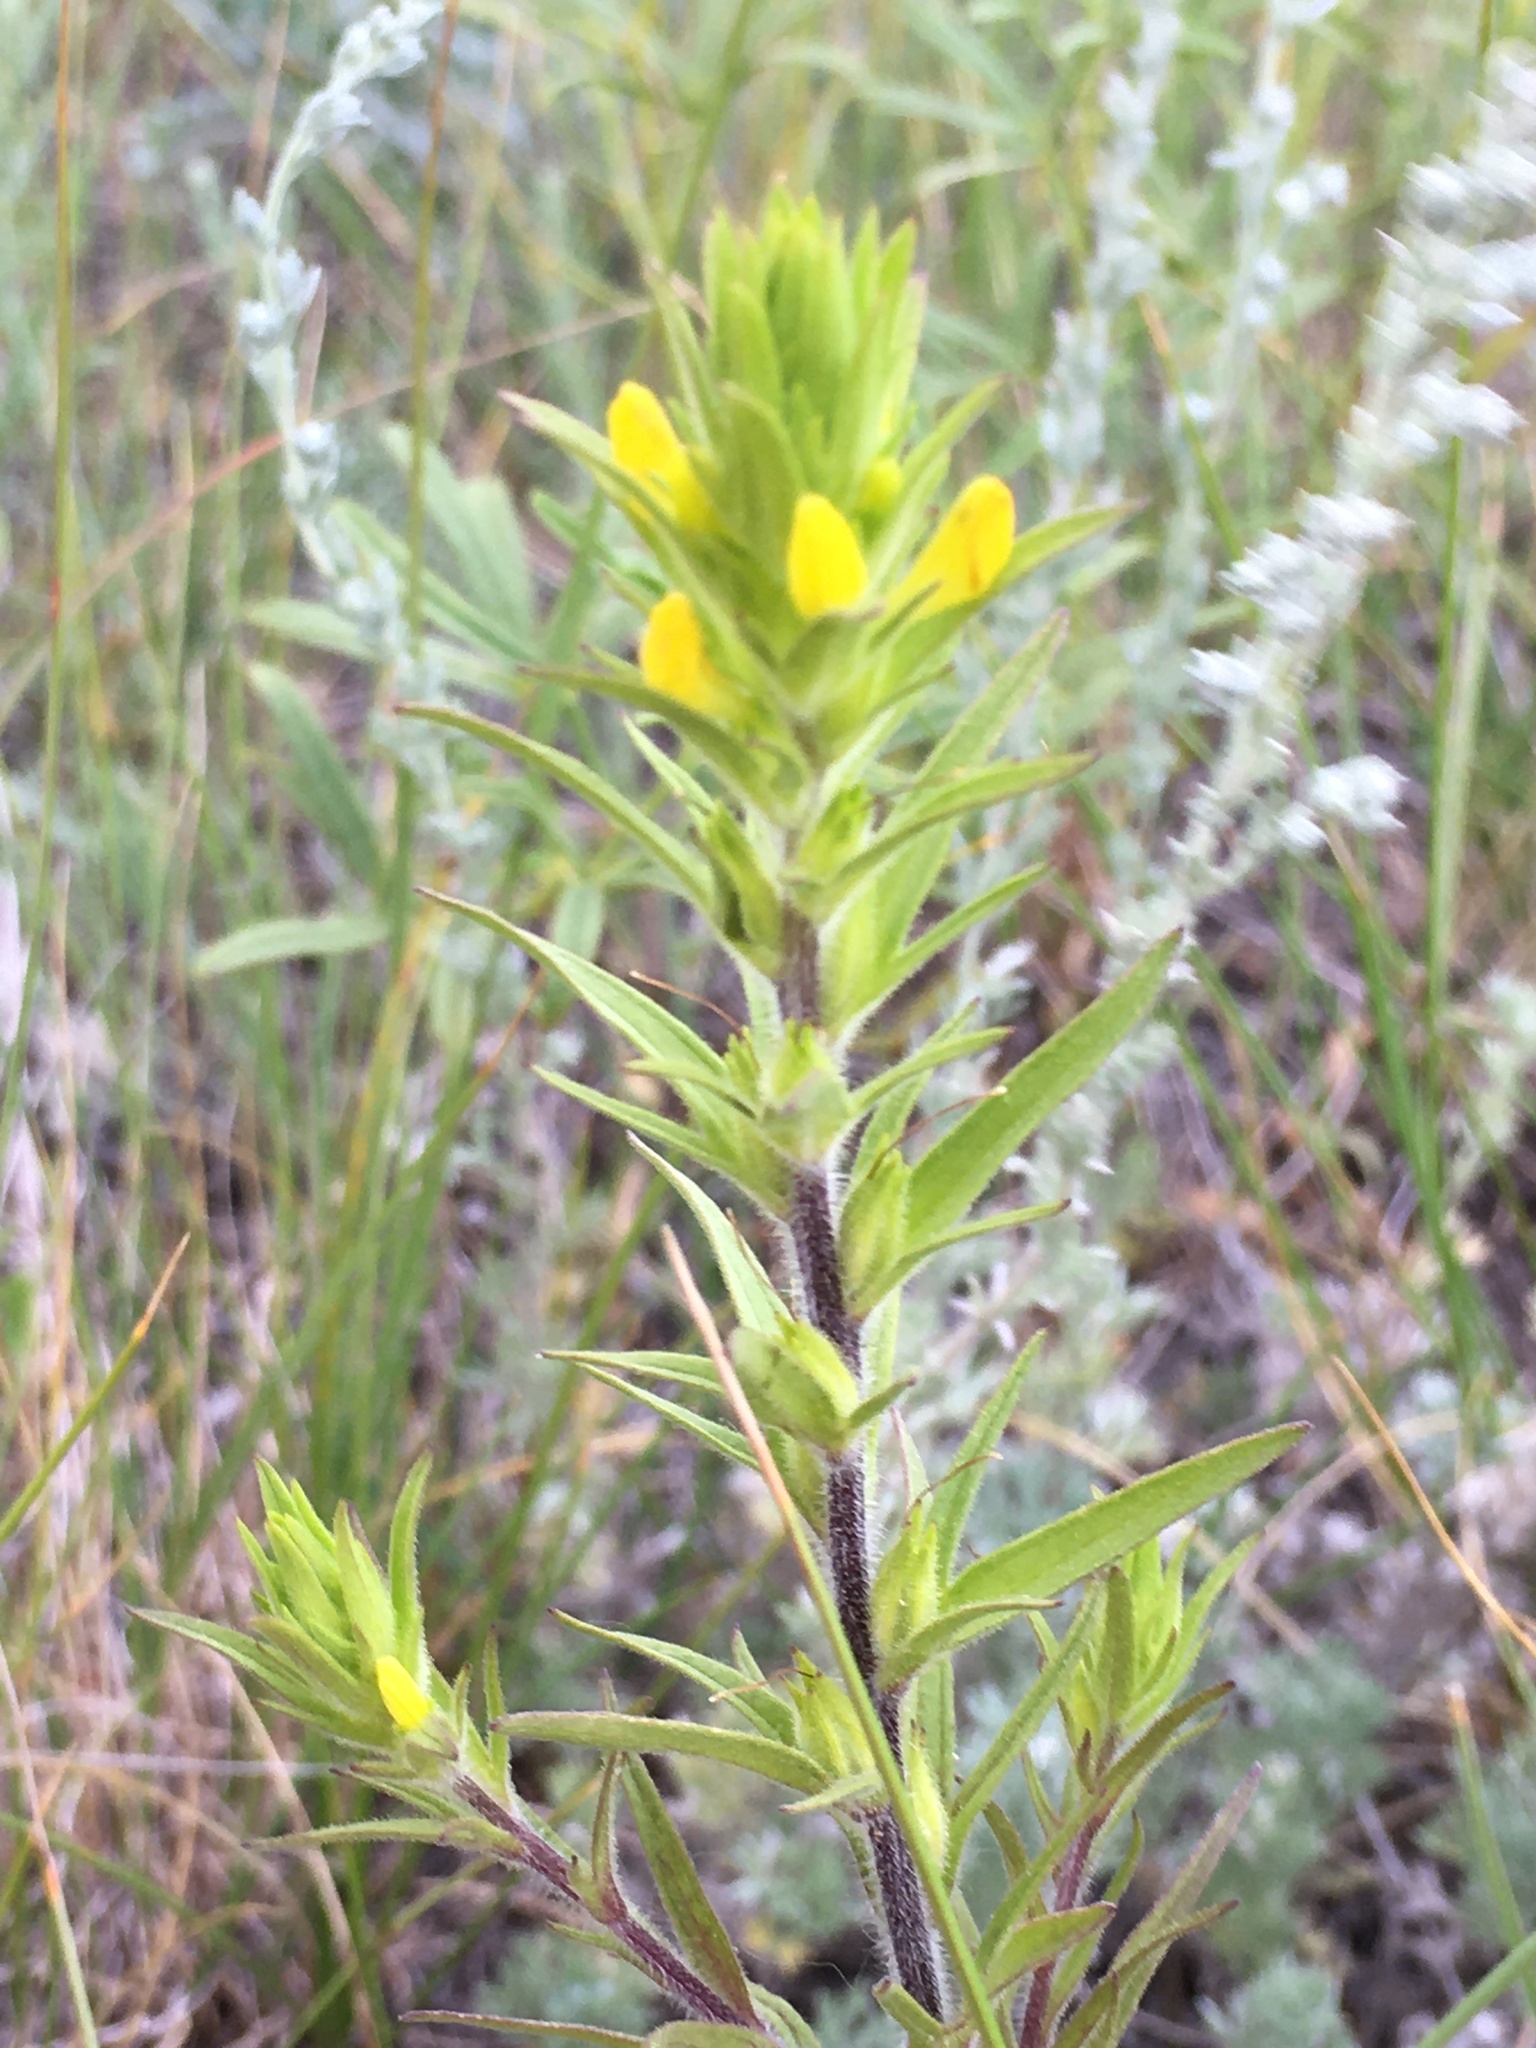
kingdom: Plantae
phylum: Tracheophyta
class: Magnoliopsida
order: Lamiales
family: Orobanchaceae
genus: Orthocarpus
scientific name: Orthocarpus luteus
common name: Golden-tongue owl's-clover
